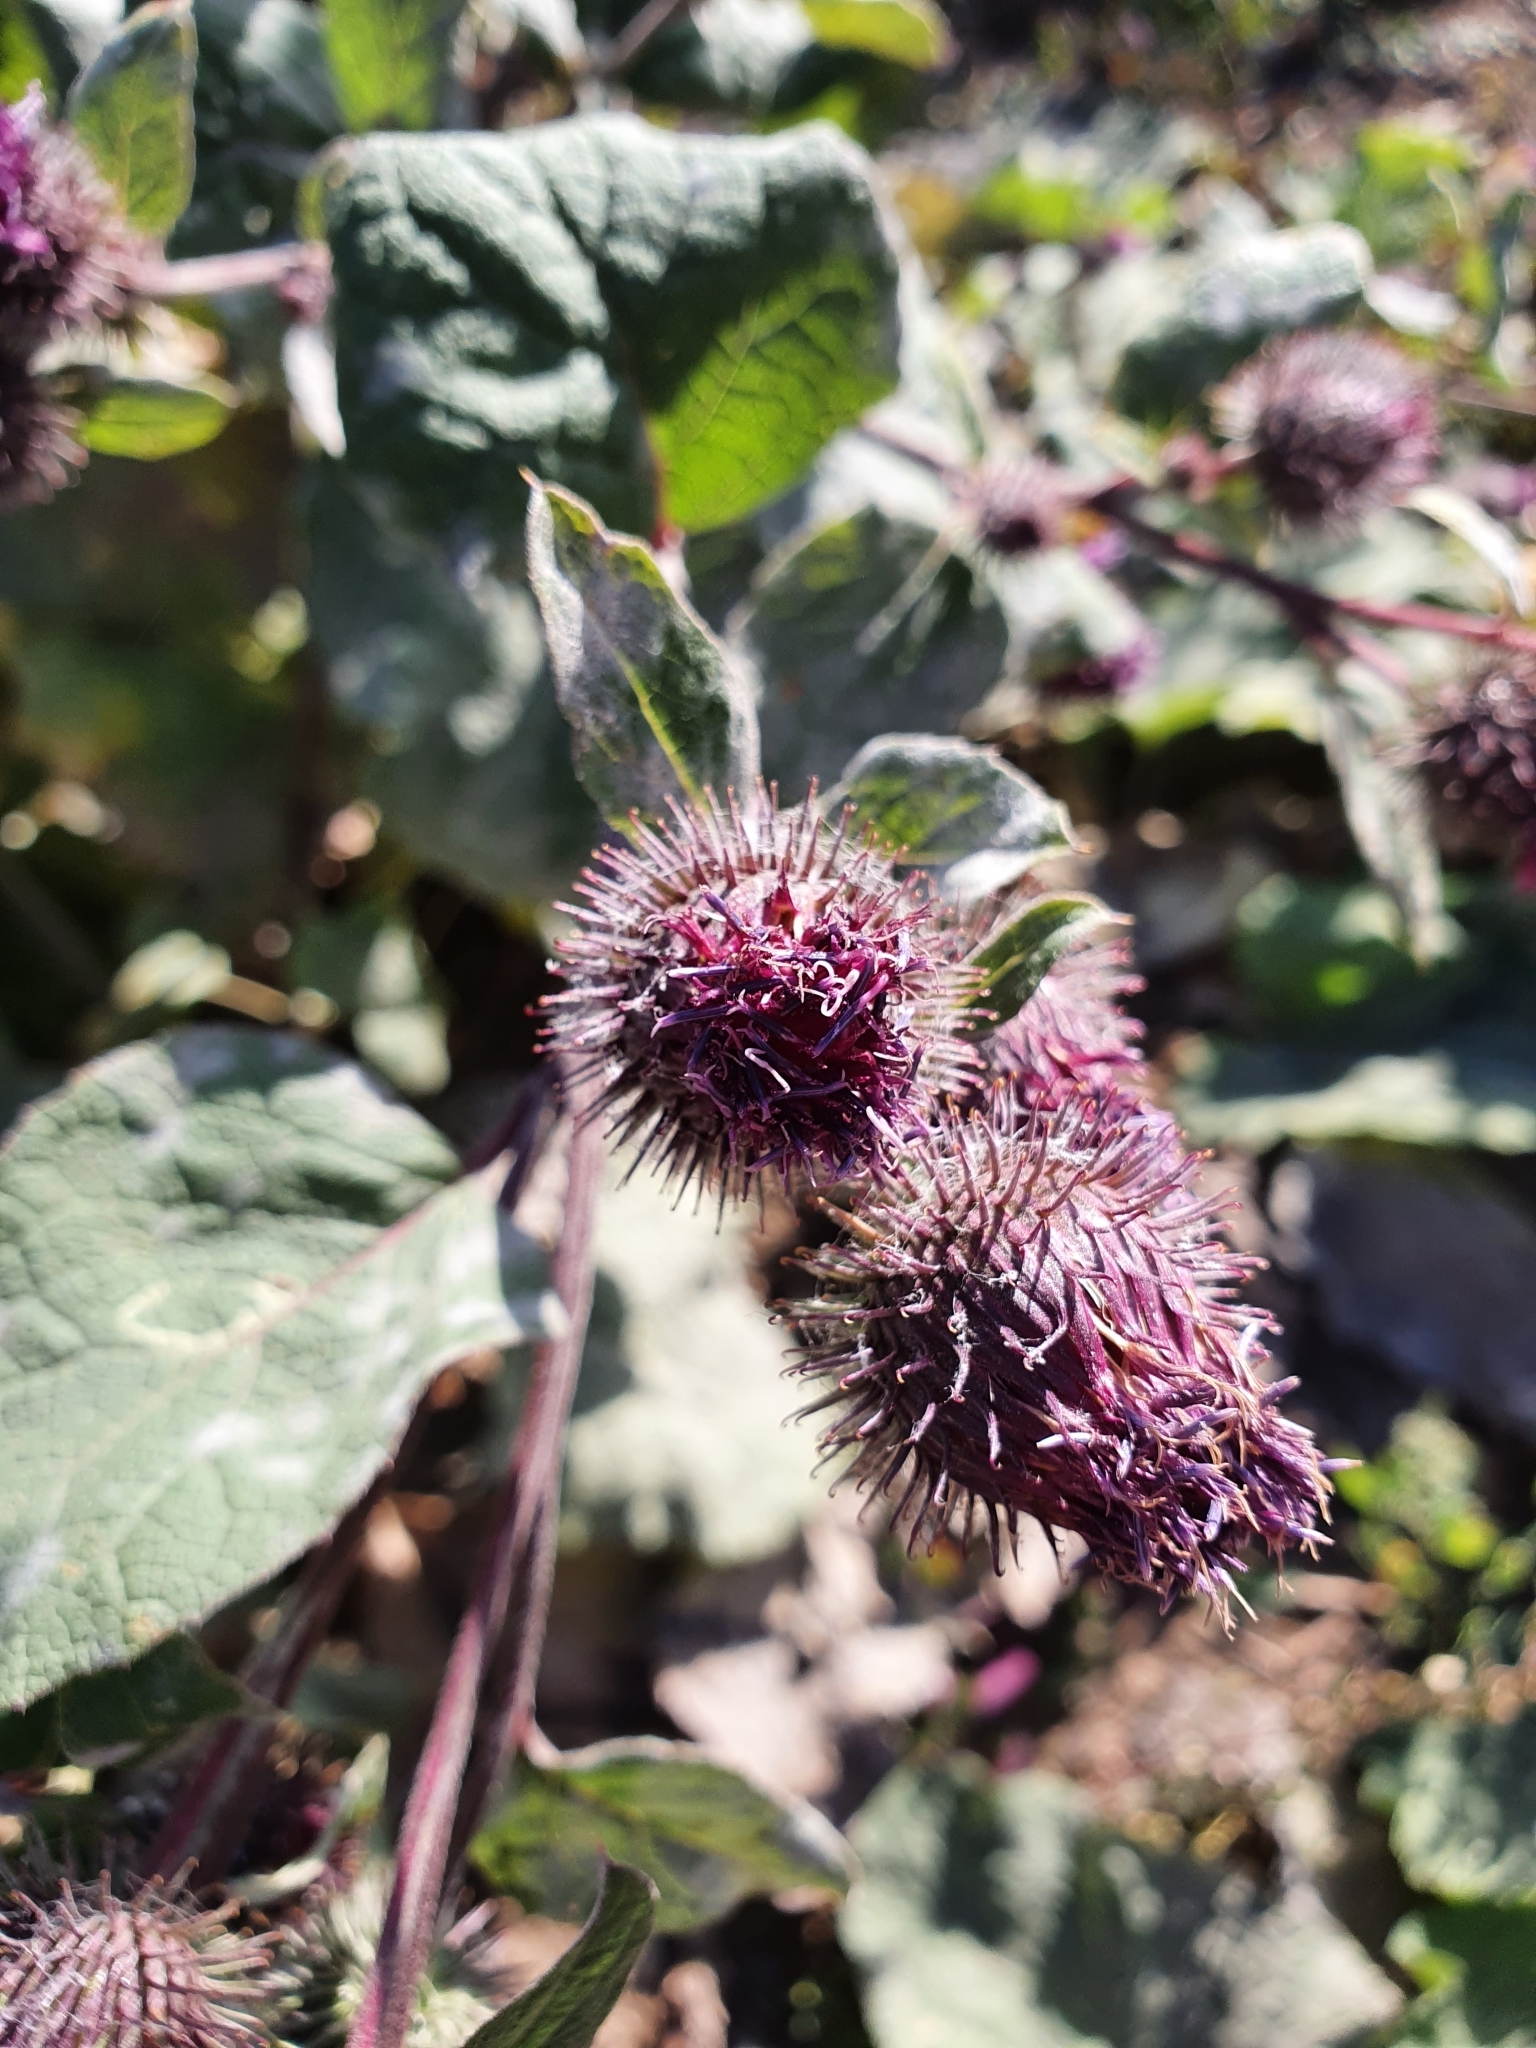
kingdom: Plantae
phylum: Tracheophyta
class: Magnoliopsida
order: Asterales
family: Asteraceae
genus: Arctium
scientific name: Arctium tomentosum
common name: Woolly burdock
